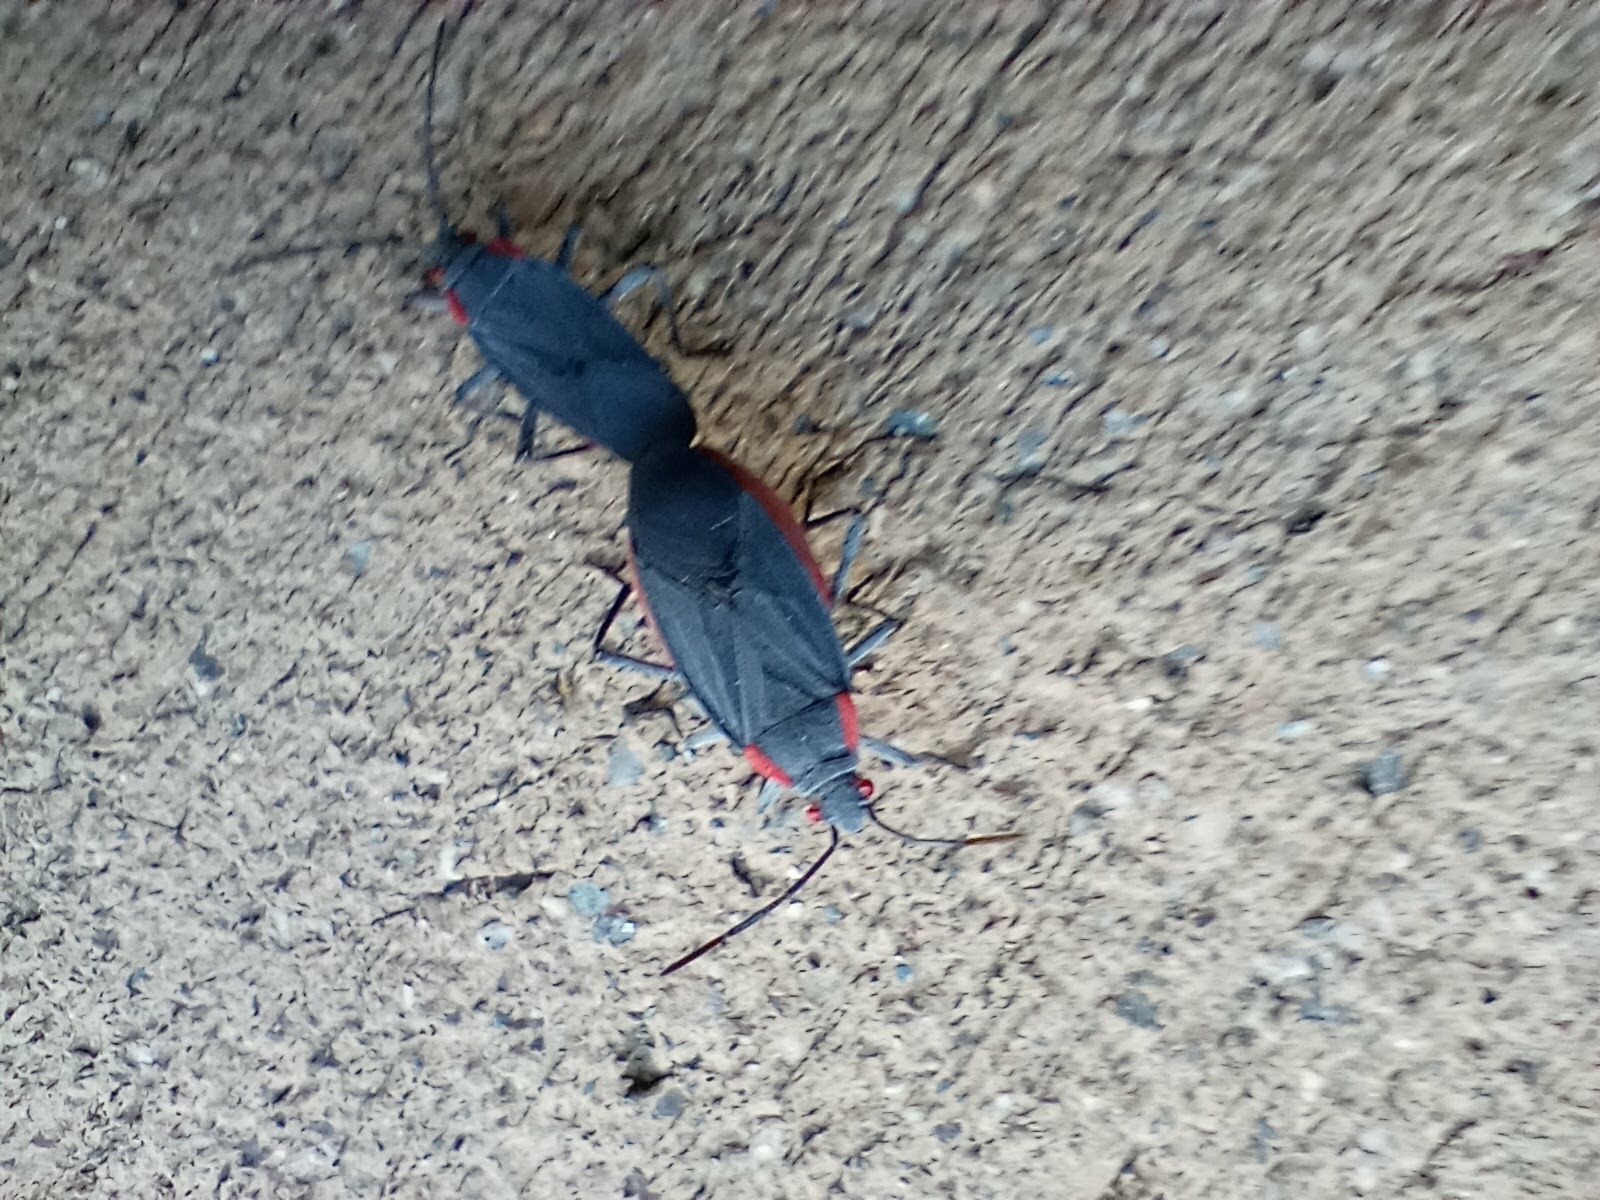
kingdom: Animalia
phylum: Arthropoda
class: Insecta
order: Hemiptera
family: Rhopalidae
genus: Jadera
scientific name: Jadera haematoloma
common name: Red-shouldered bug
